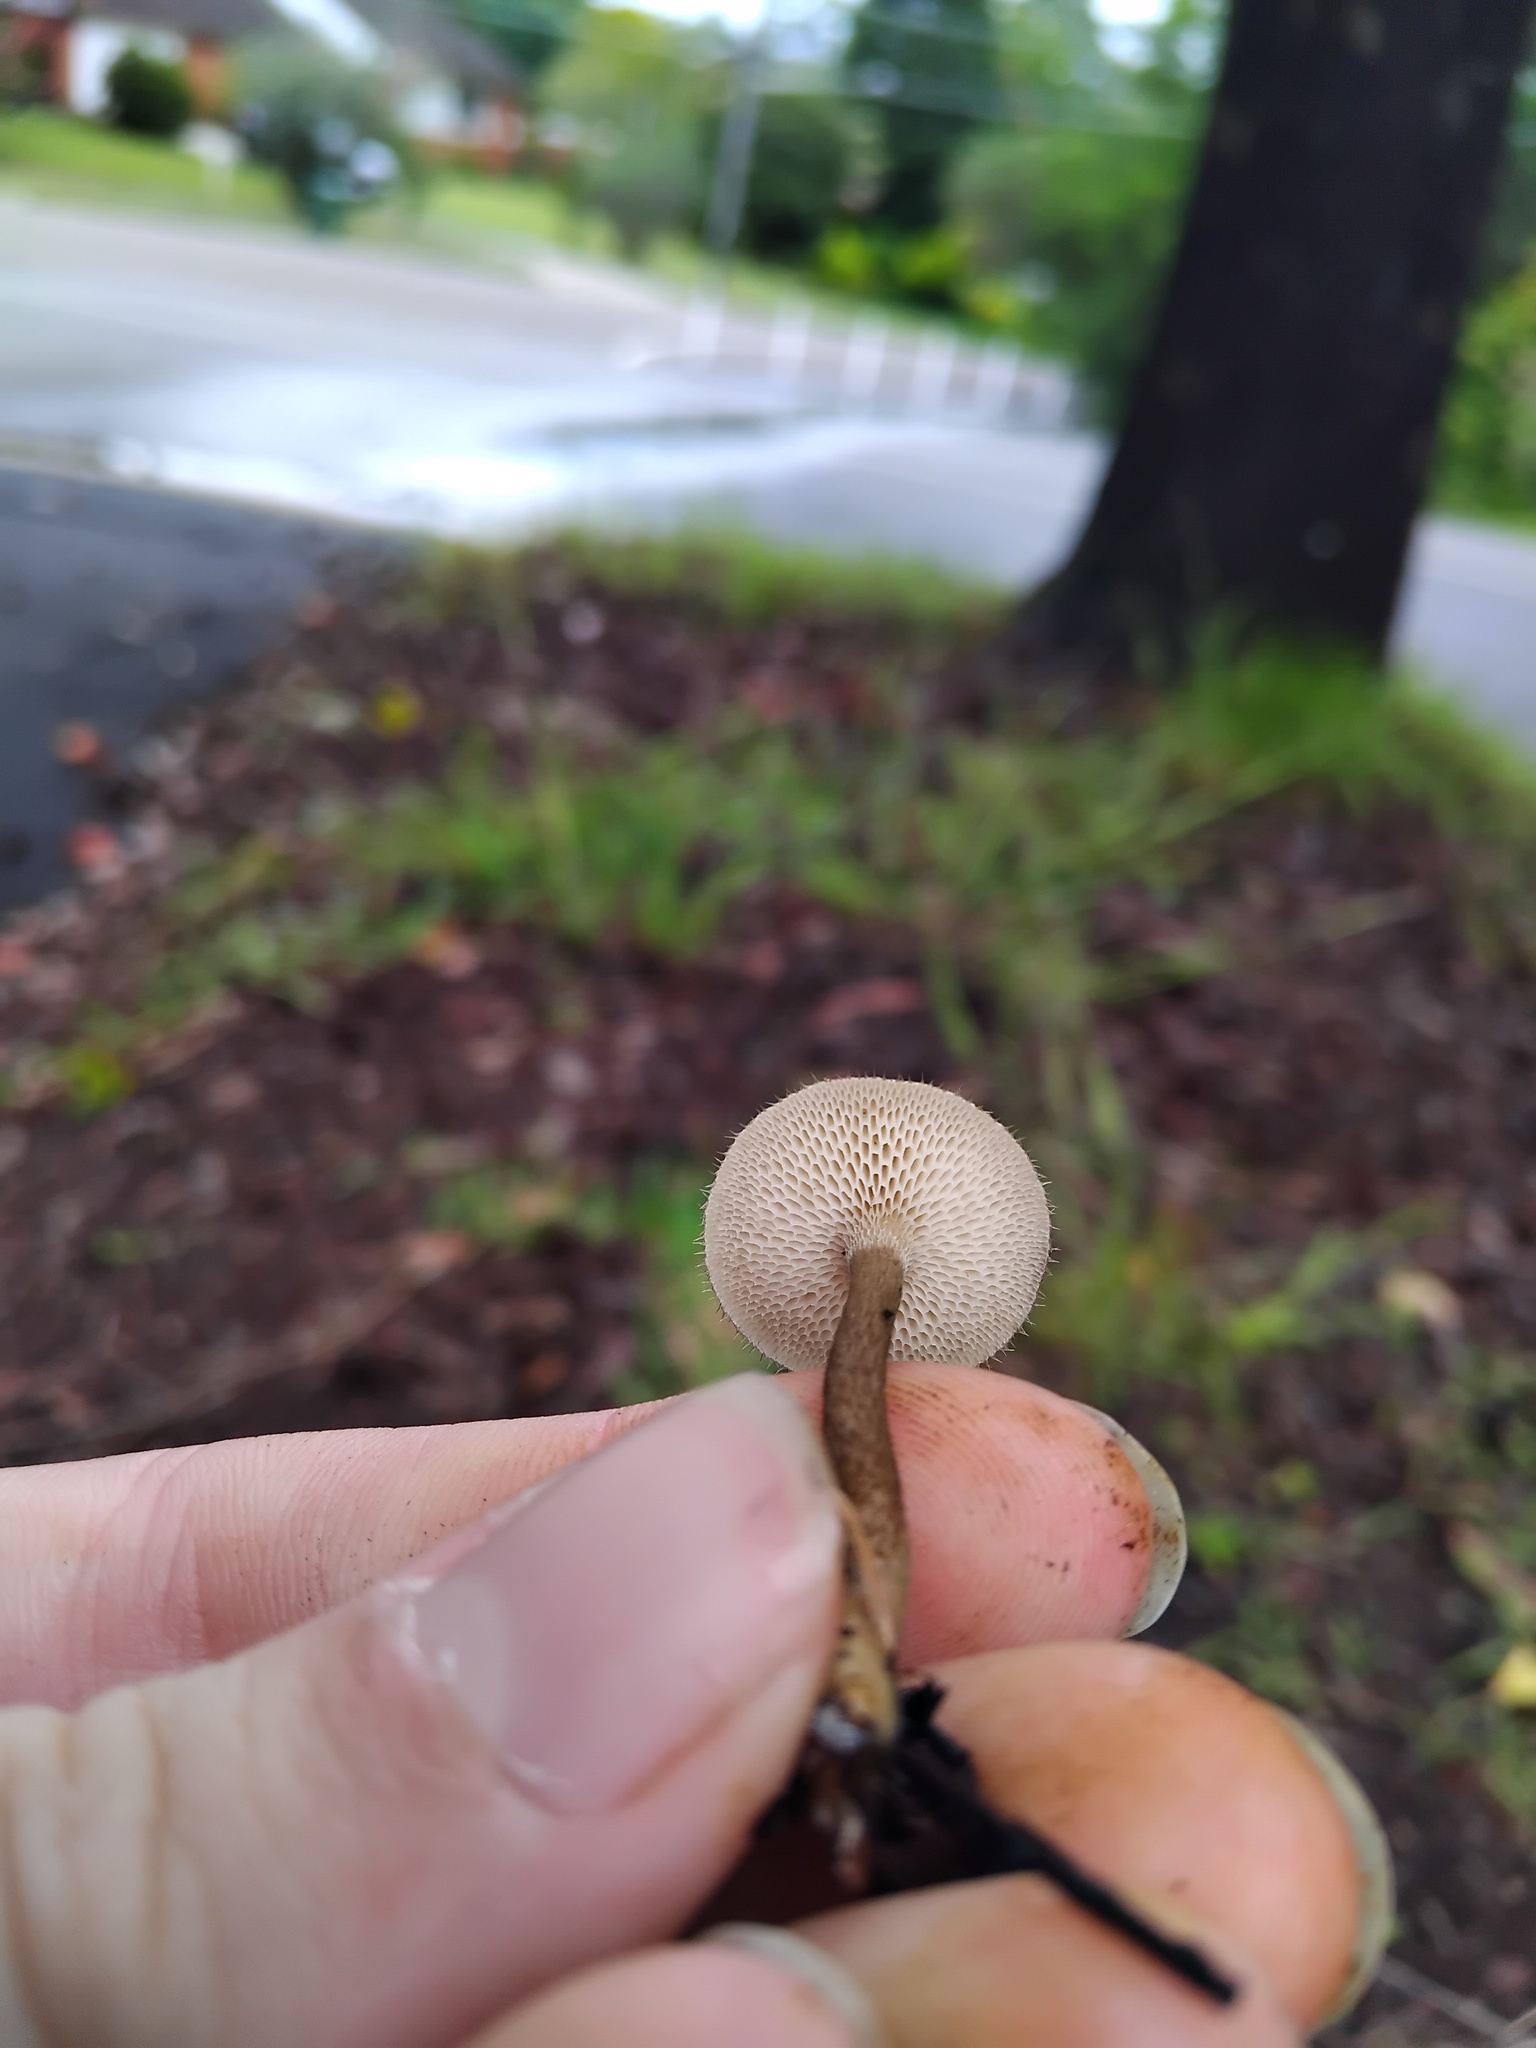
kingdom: Fungi
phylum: Basidiomycota
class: Agaricomycetes
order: Polyporales
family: Polyporaceae
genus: Lentinus
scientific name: Lentinus arcularius
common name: Spring polypore
